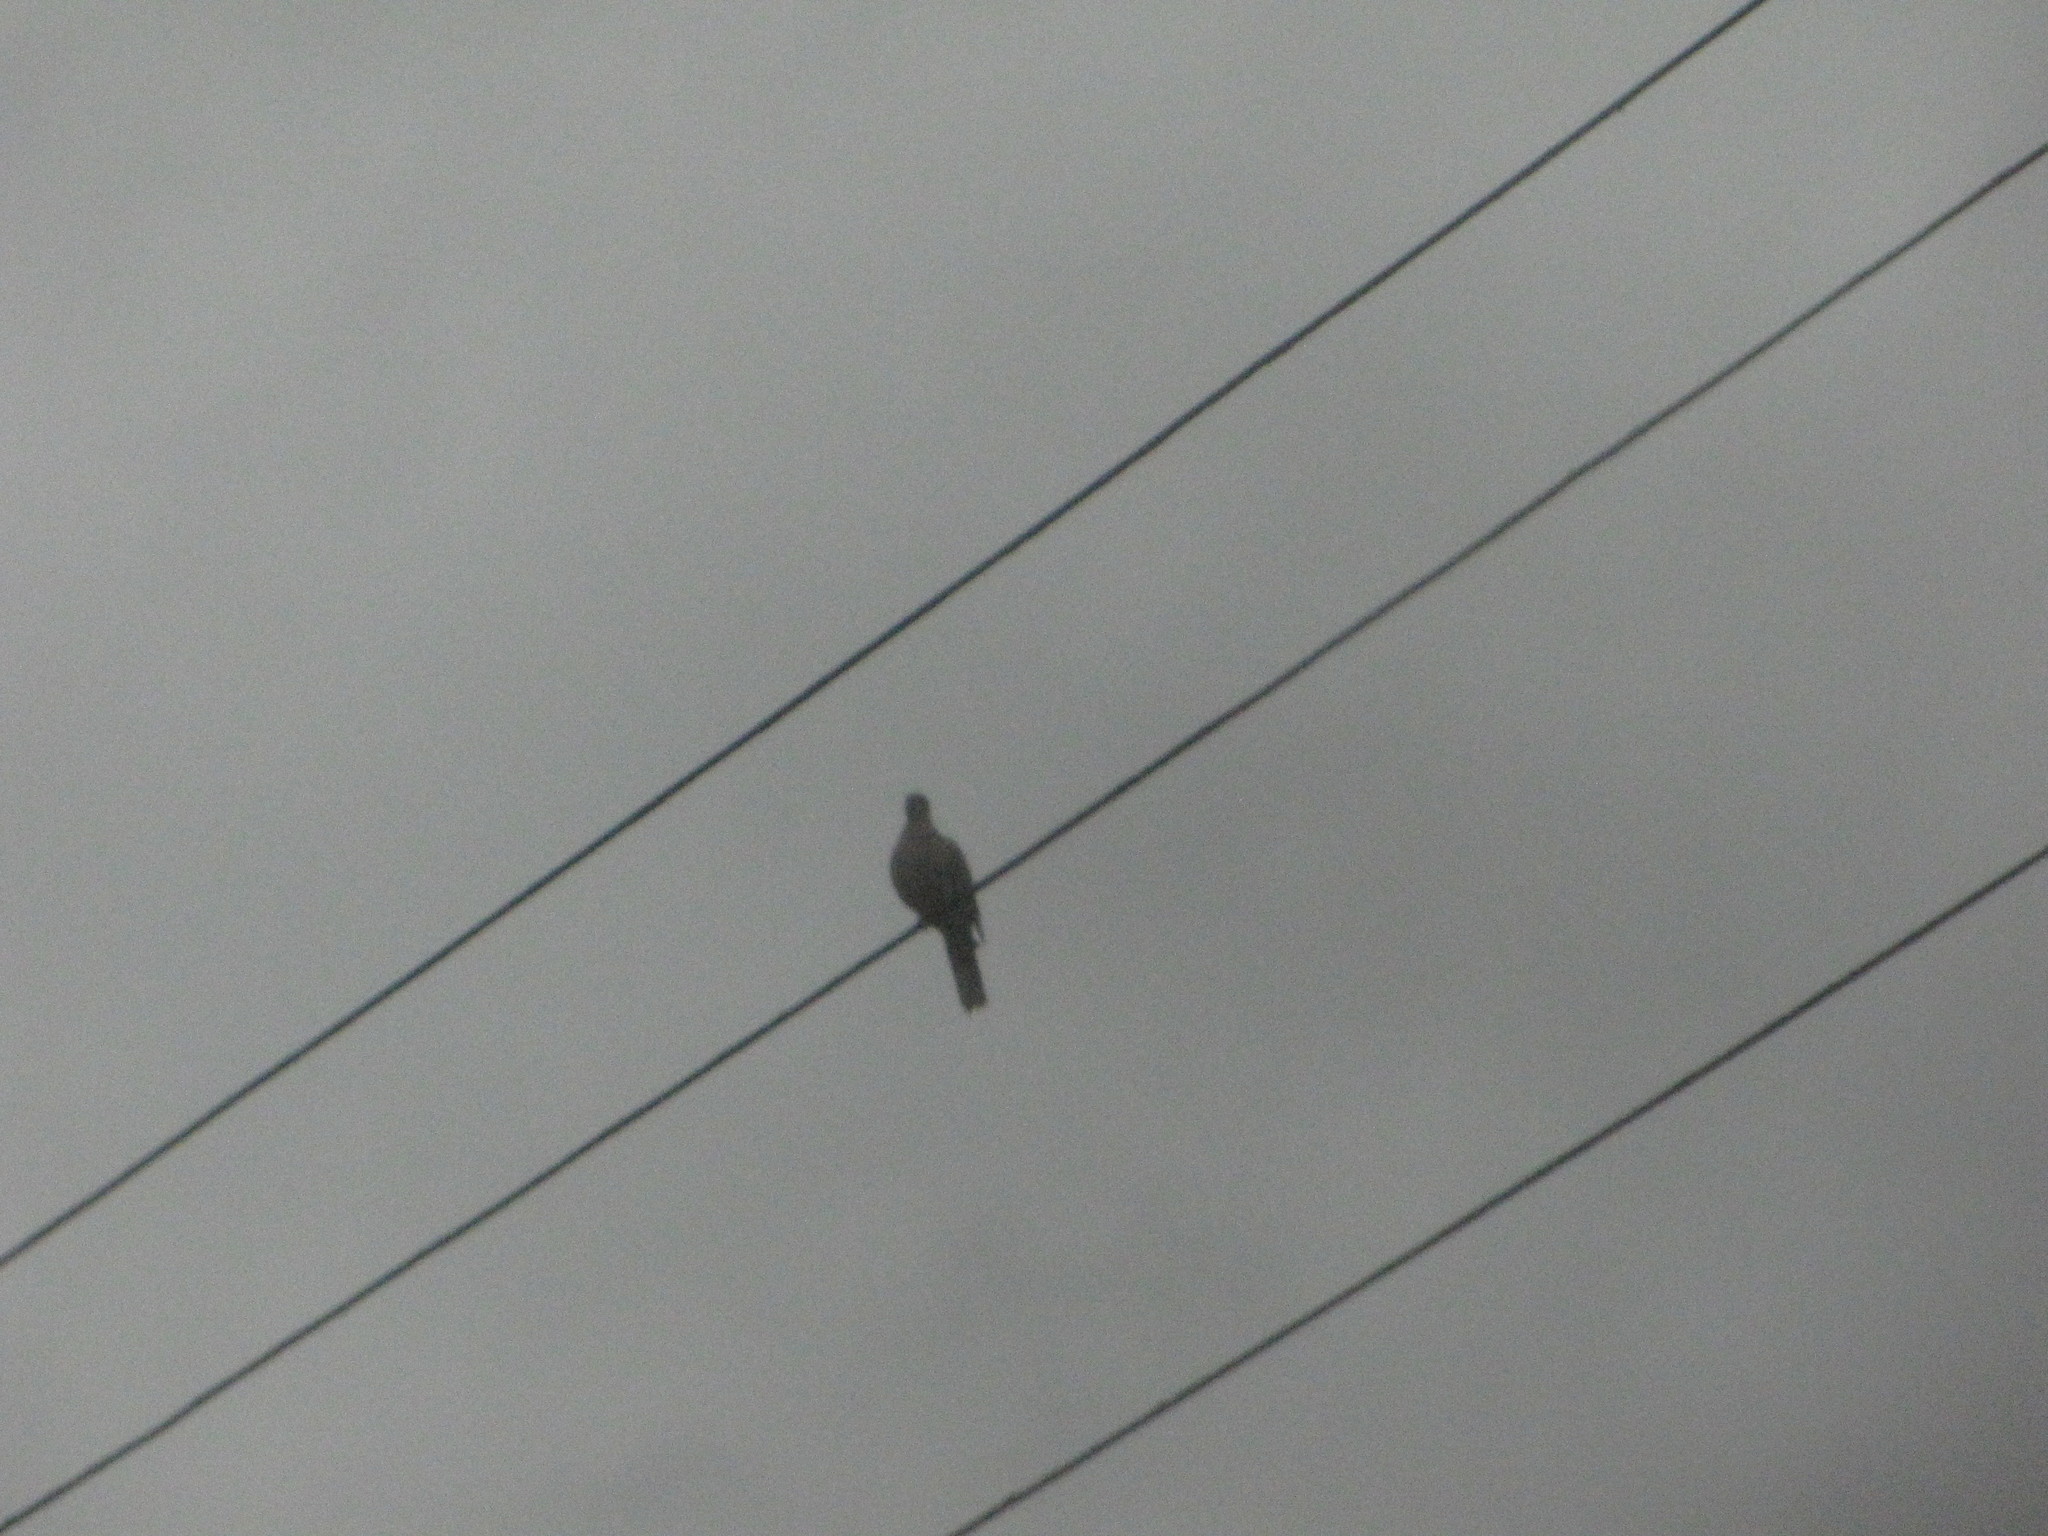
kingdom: Animalia
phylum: Chordata
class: Aves
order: Columbiformes
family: Columbidae
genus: Streptopelia
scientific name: Streptopelia decaocto
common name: Eurasian collared dove
